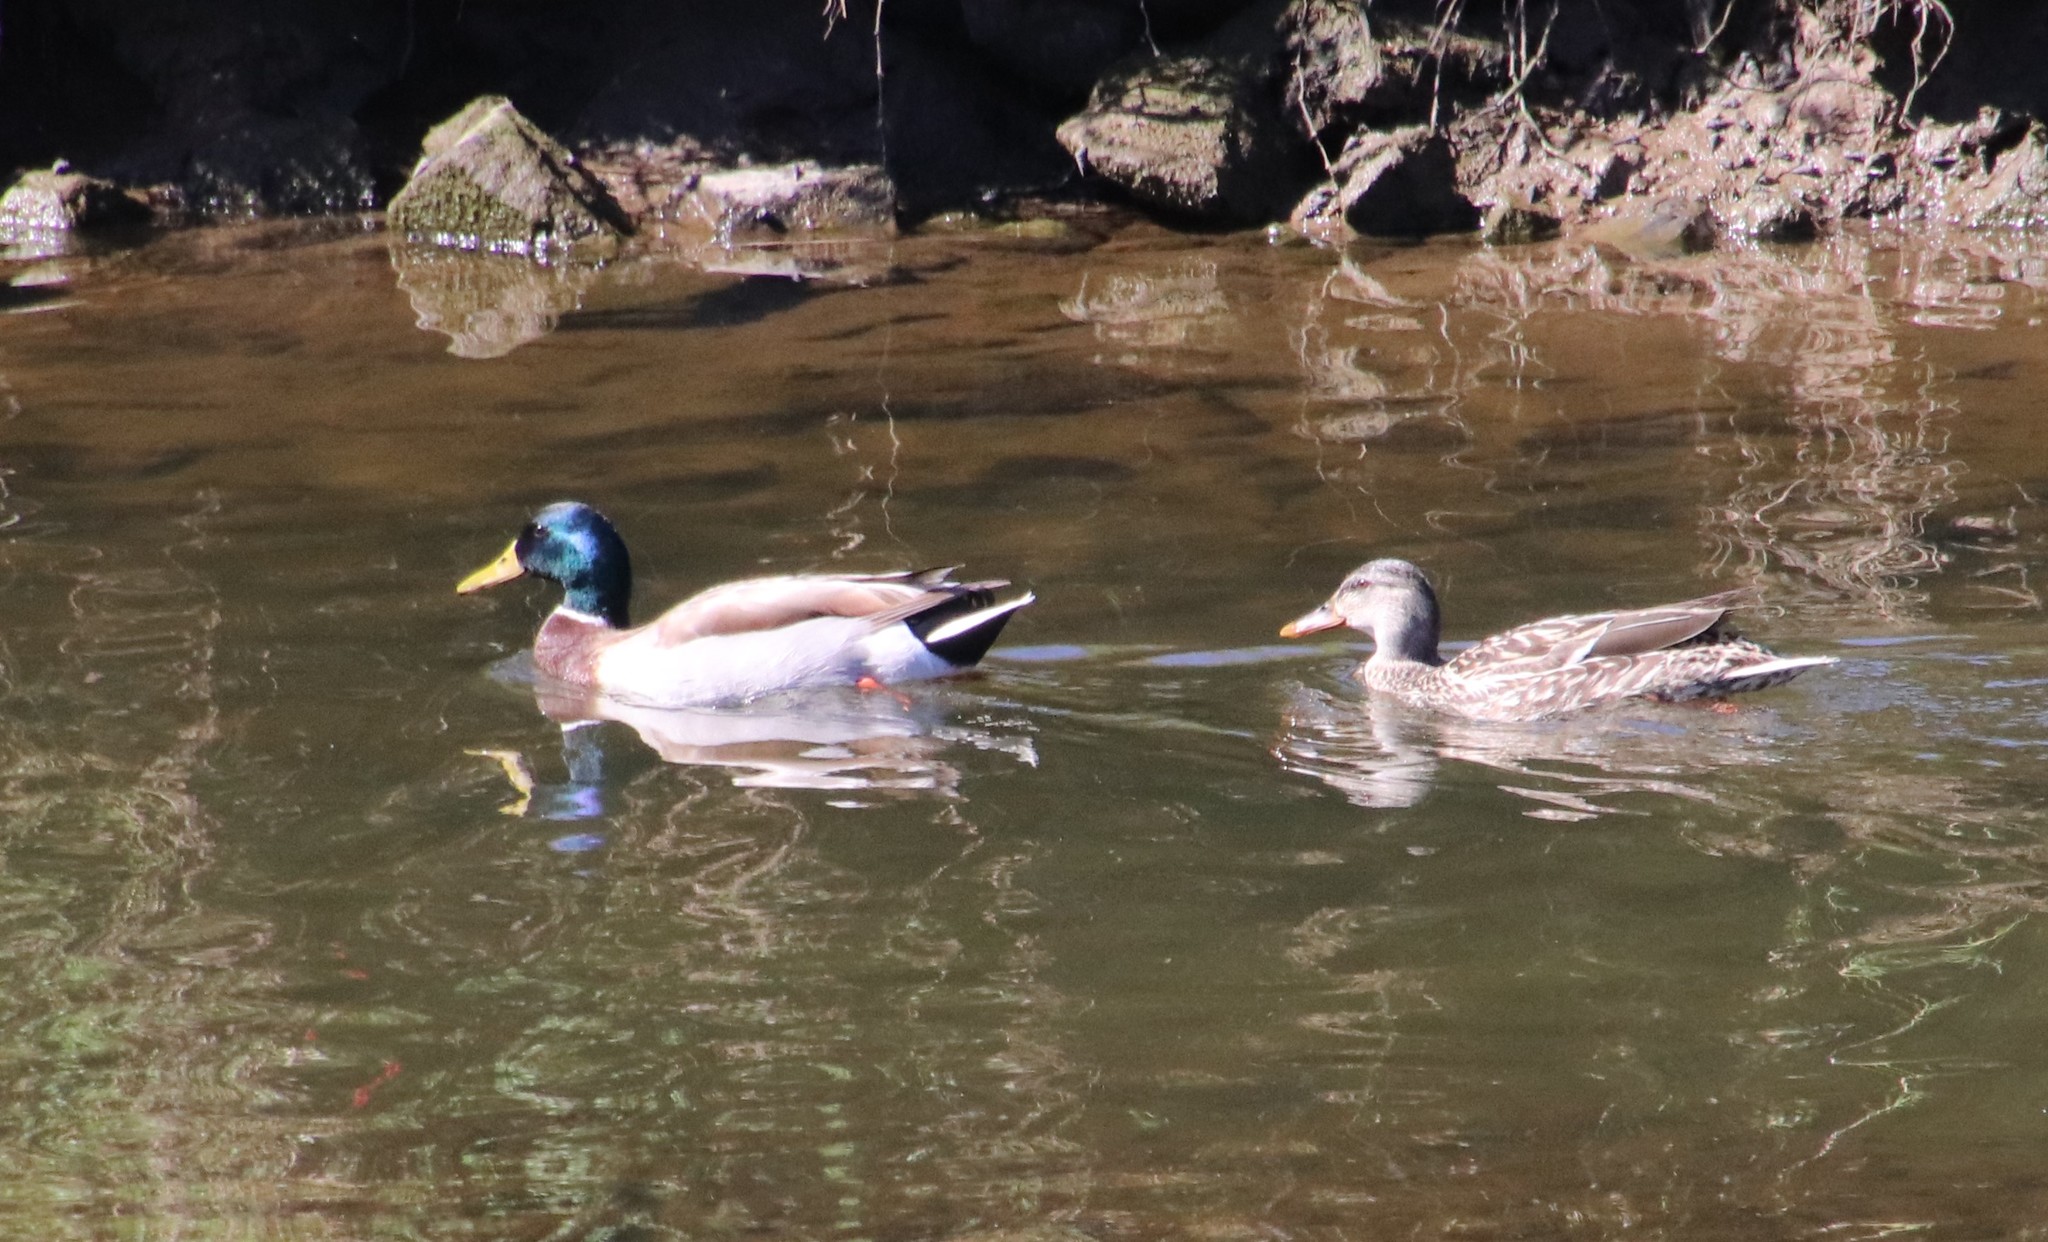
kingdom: Animalia
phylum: Chordata
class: Aves
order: Anseriformes
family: Anatidae
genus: Anas
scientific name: Anas platyrhynchos
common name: Mallard
